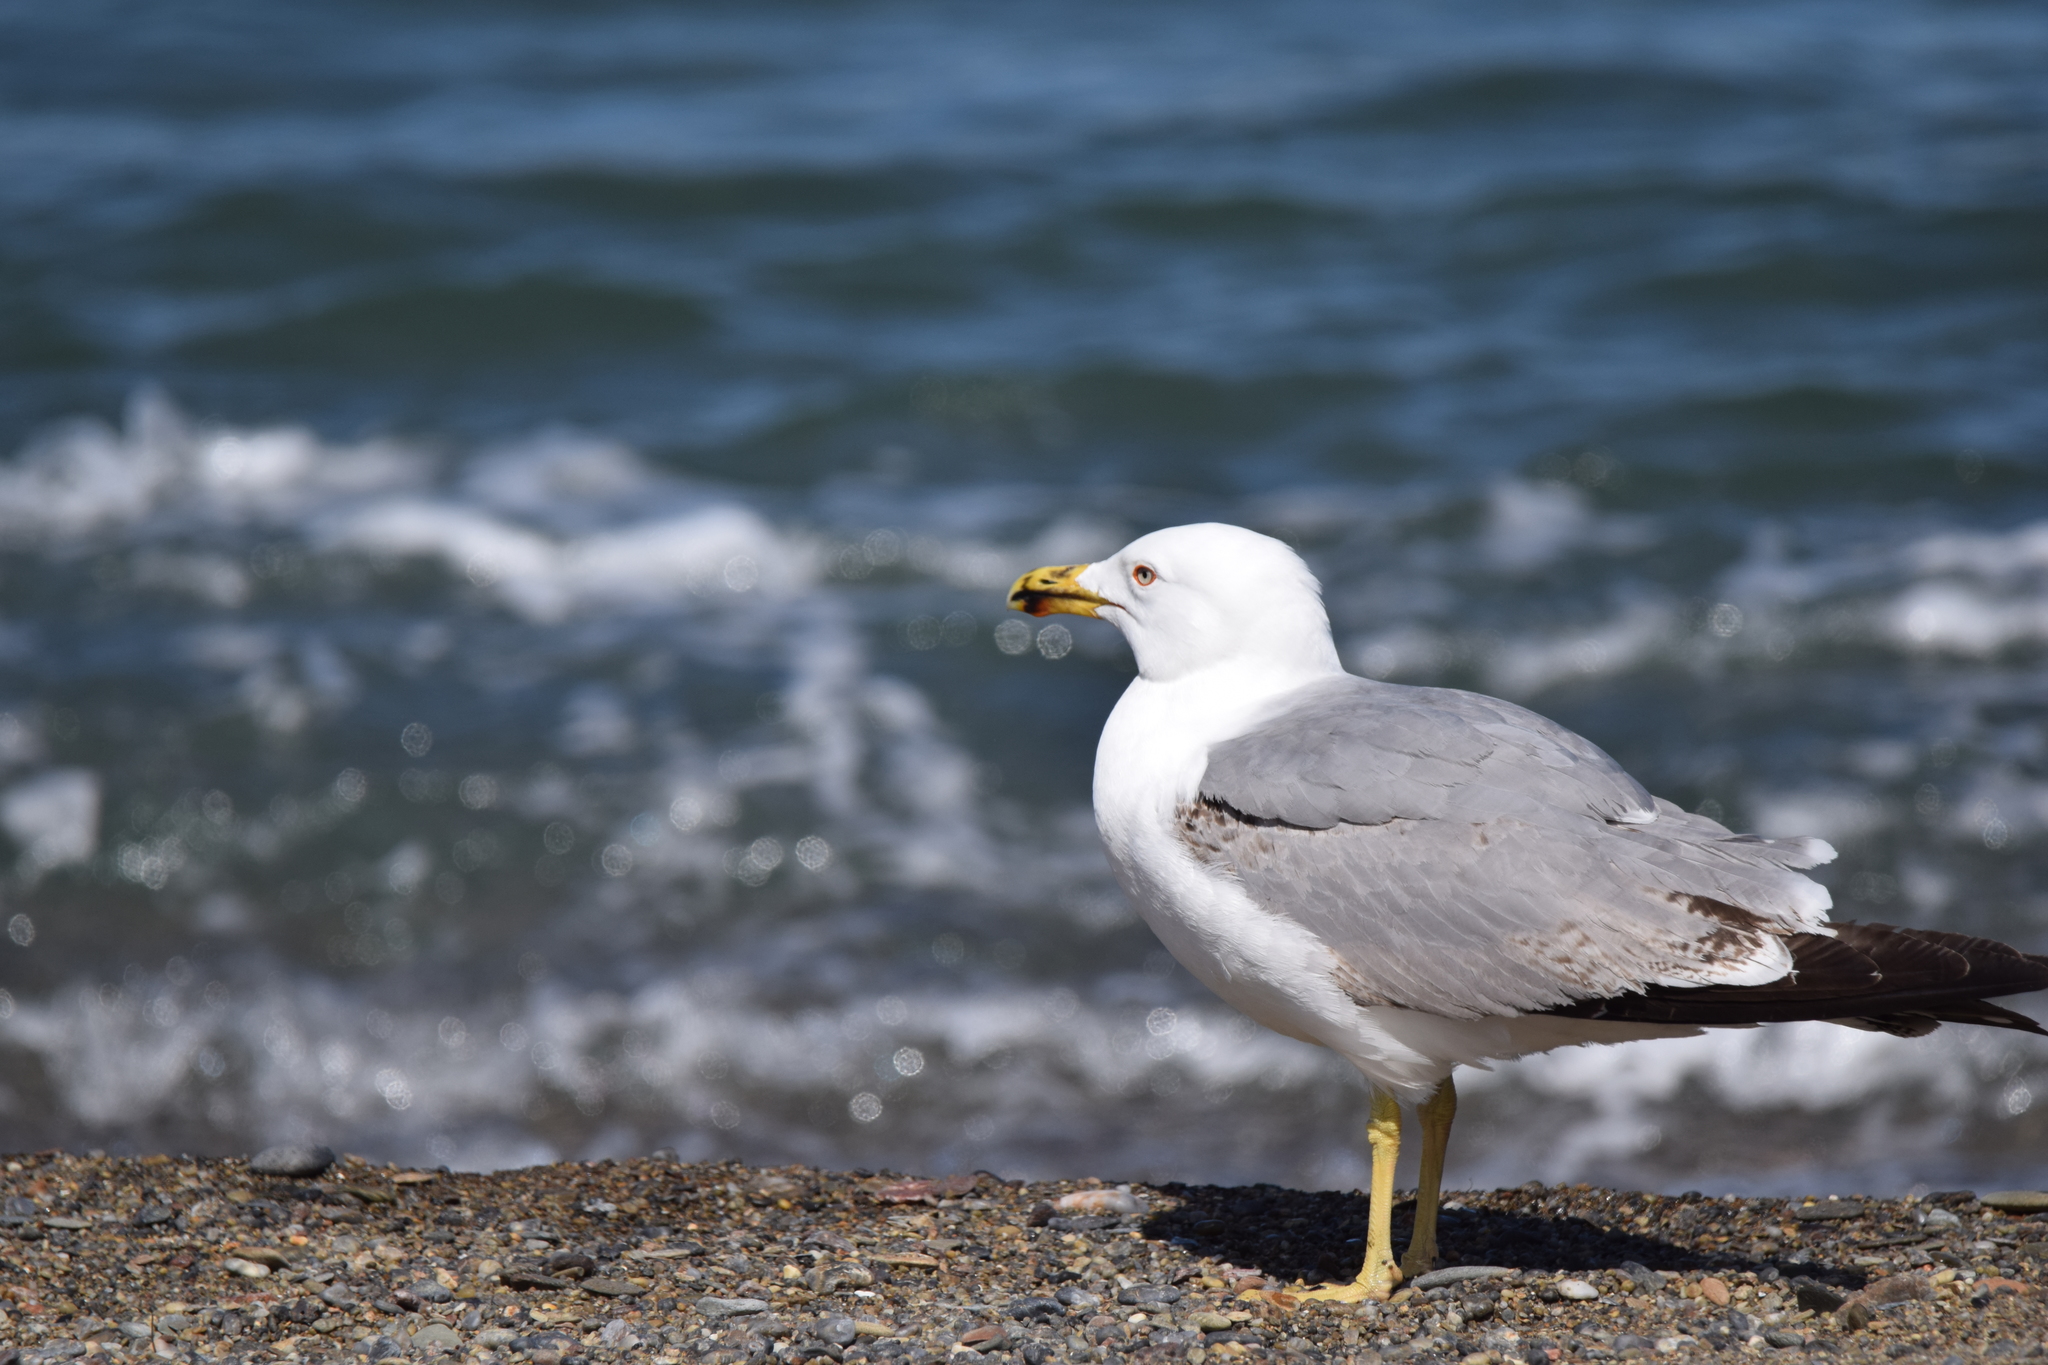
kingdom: Animalia
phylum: Chordata
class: Aves
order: Charadriiformes
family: Laridae
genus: Larus
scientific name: Larus michahellis
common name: Yellow-legged gull
